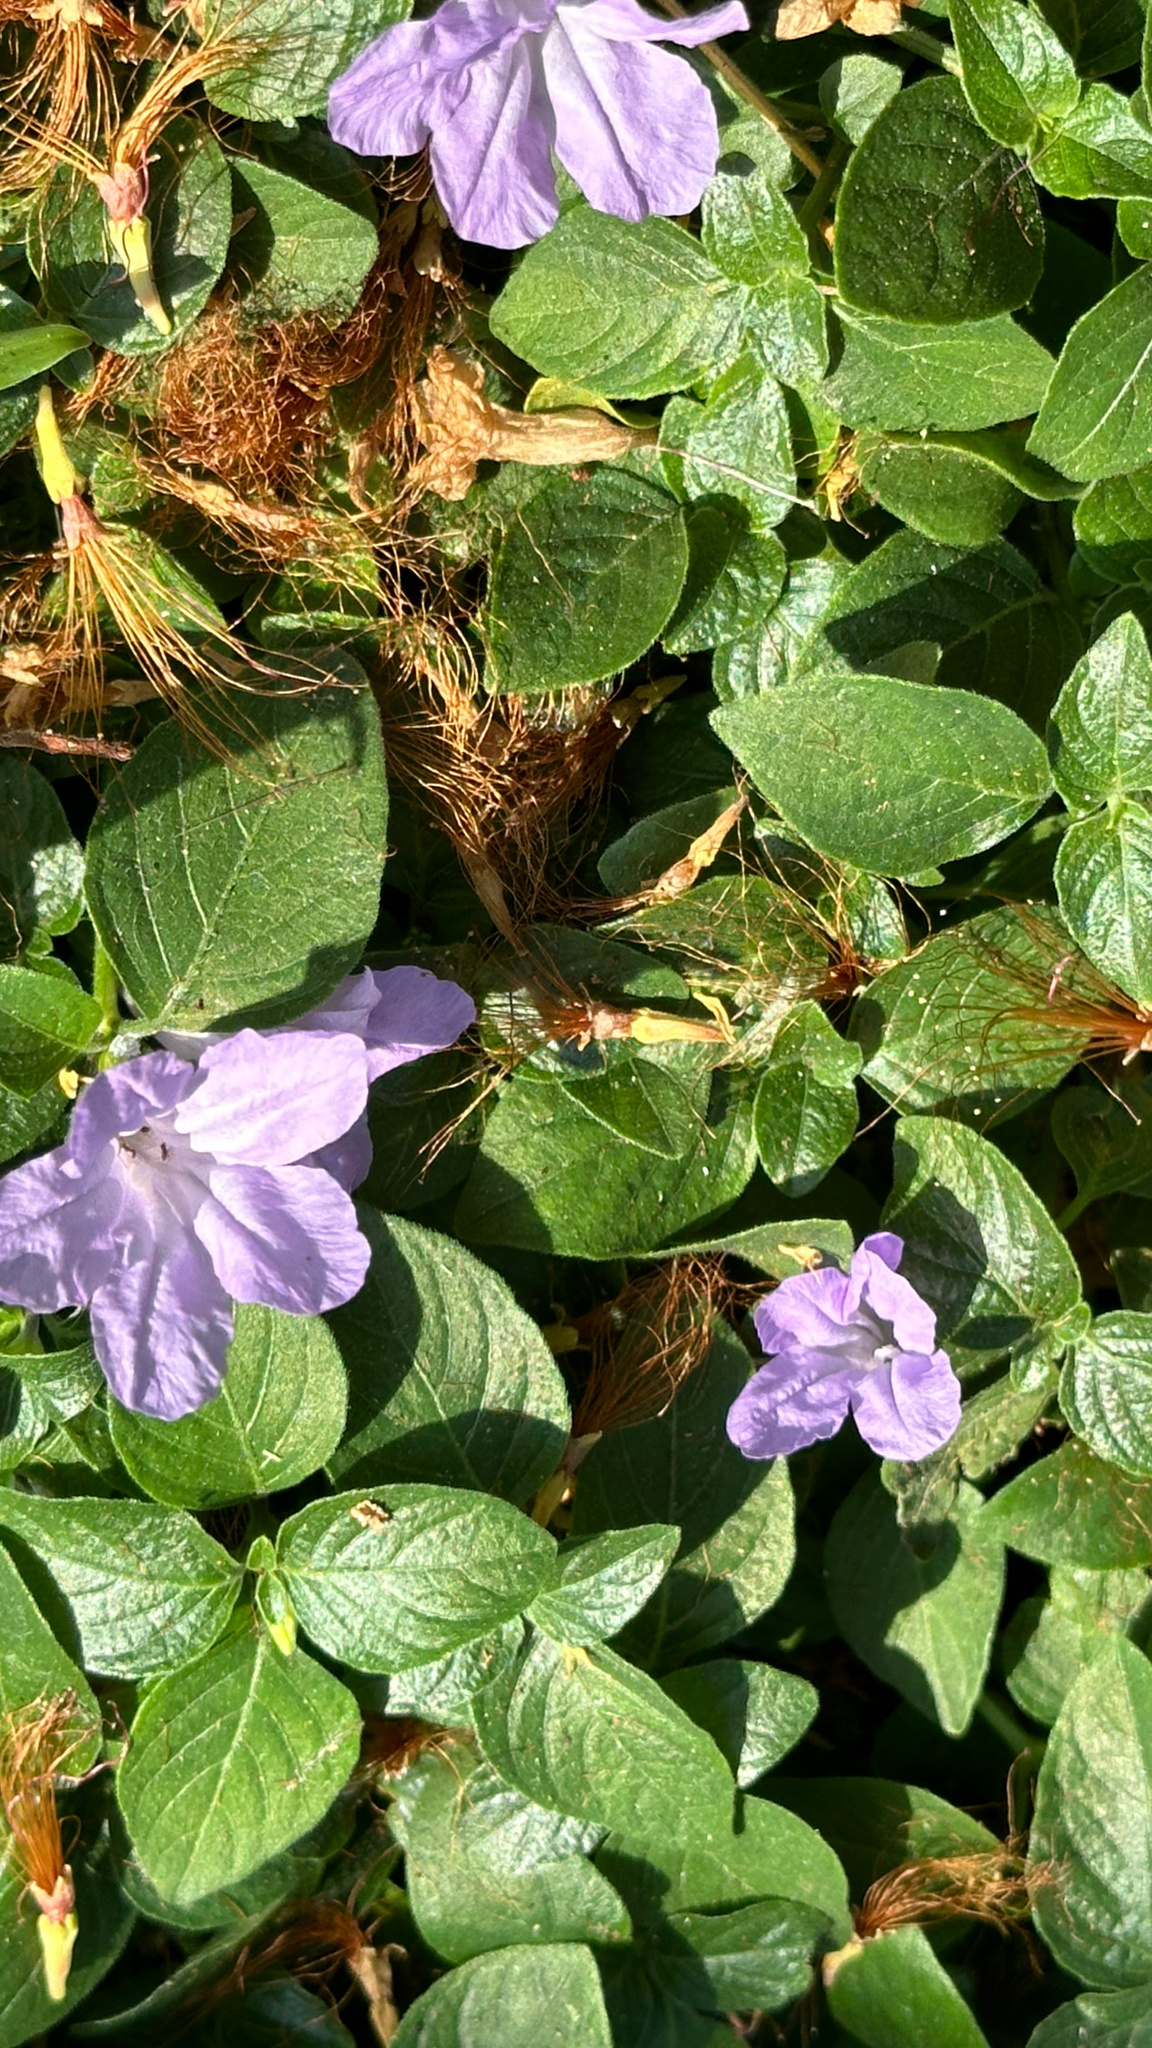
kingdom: Plantae
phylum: Tracheophyta
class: Magnoliopsida
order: Lamiales
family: Acanthaceae
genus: Ruellia
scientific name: Ruellia tuberosa
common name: Devil's bit
